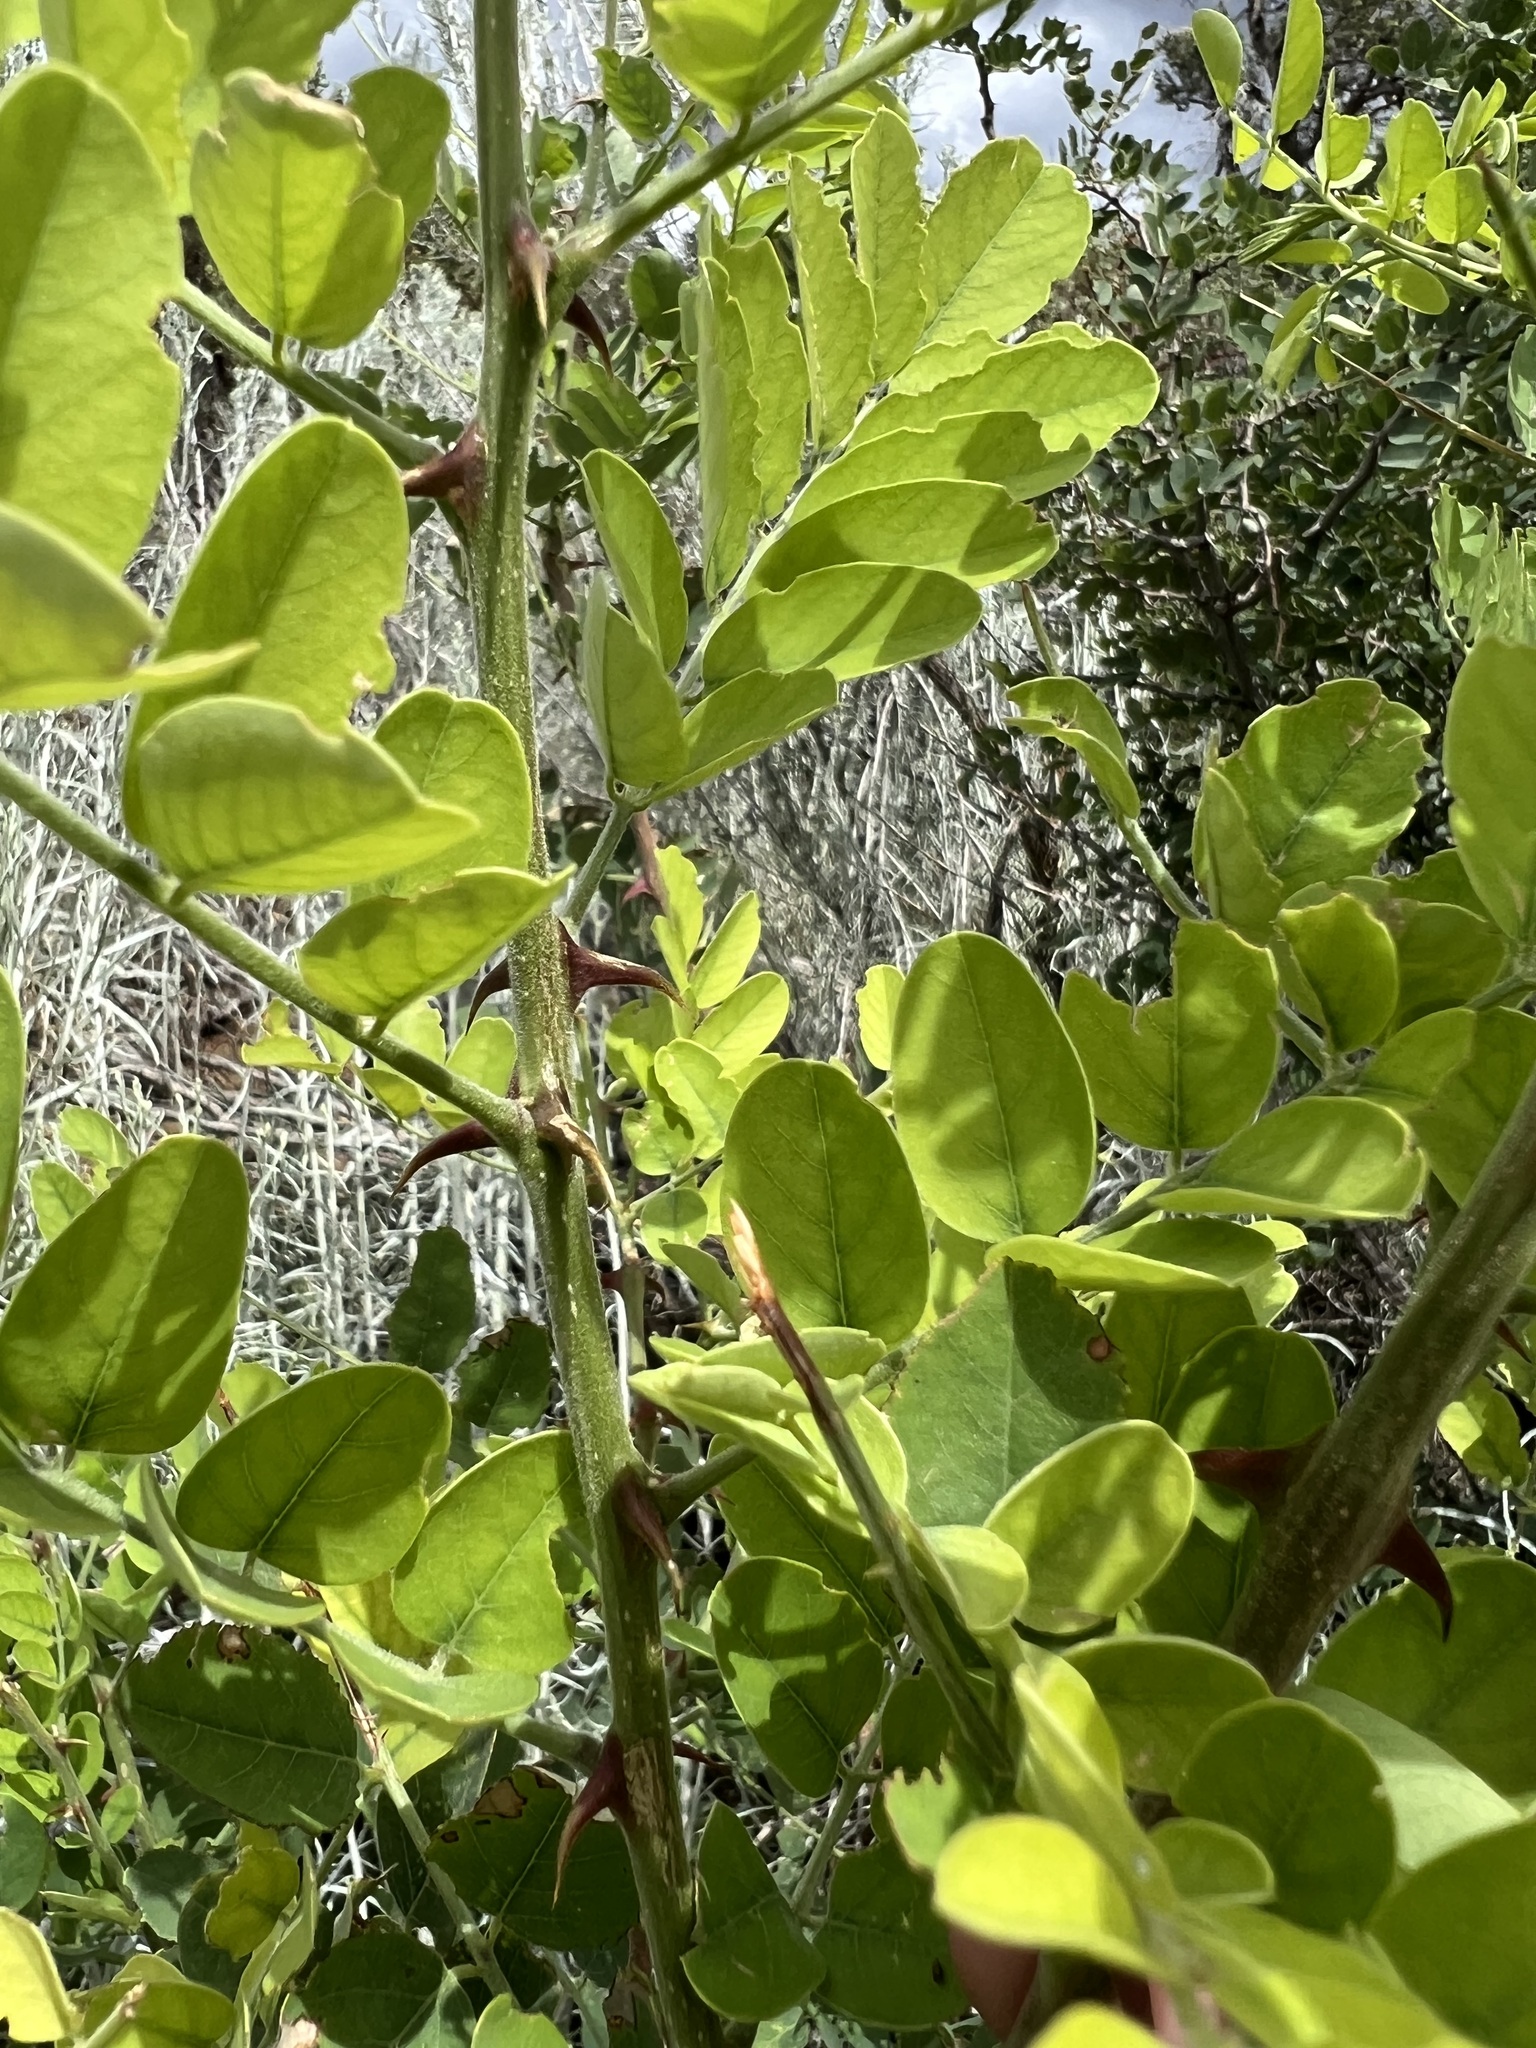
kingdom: Plantae
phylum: Tracheophyta
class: Magnoliopsida
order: Fabales
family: Fabaceae
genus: Robinia
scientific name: Robinia neomexicana
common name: New mexico locust
